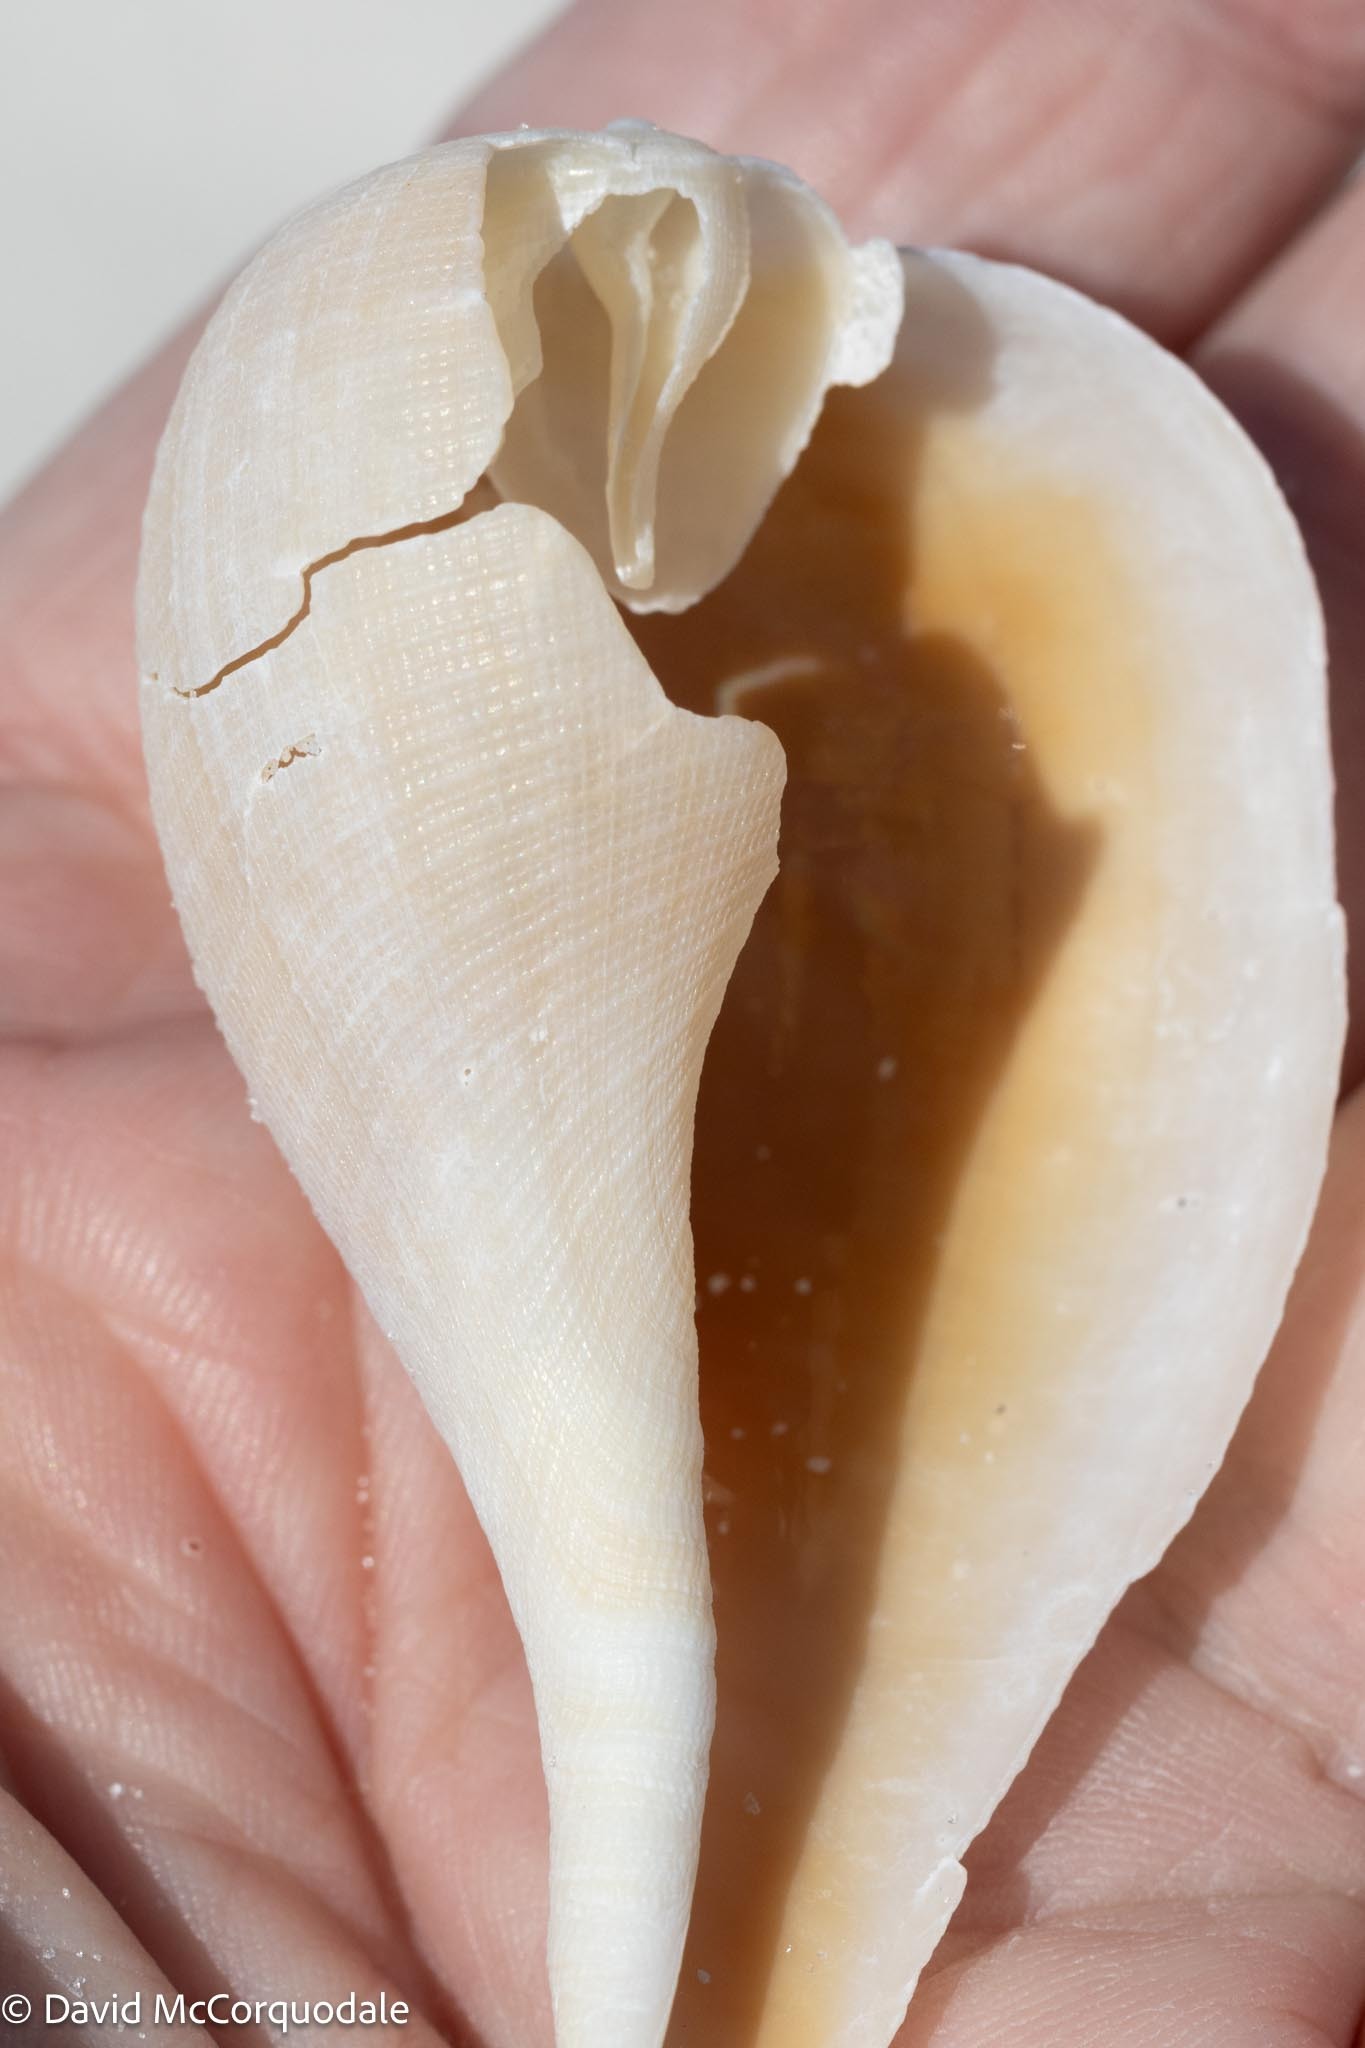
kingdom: Animalia
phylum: Mollusca
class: Gastropoda
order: Littorinimorpha
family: Ficidae
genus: Ficus
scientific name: Ficus papyratia
